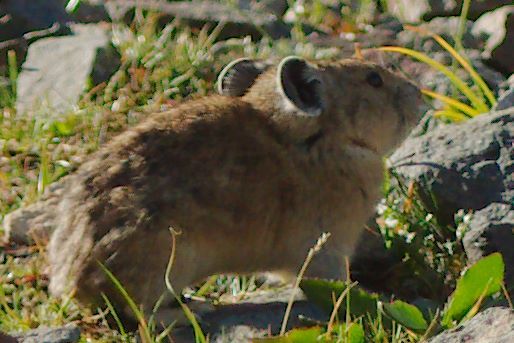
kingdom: Animalia
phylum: Chordata
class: Mammalia
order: Lagomorpha
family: Ochotonidae
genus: Ochotona
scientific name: Ochotona princeps
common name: American pika
